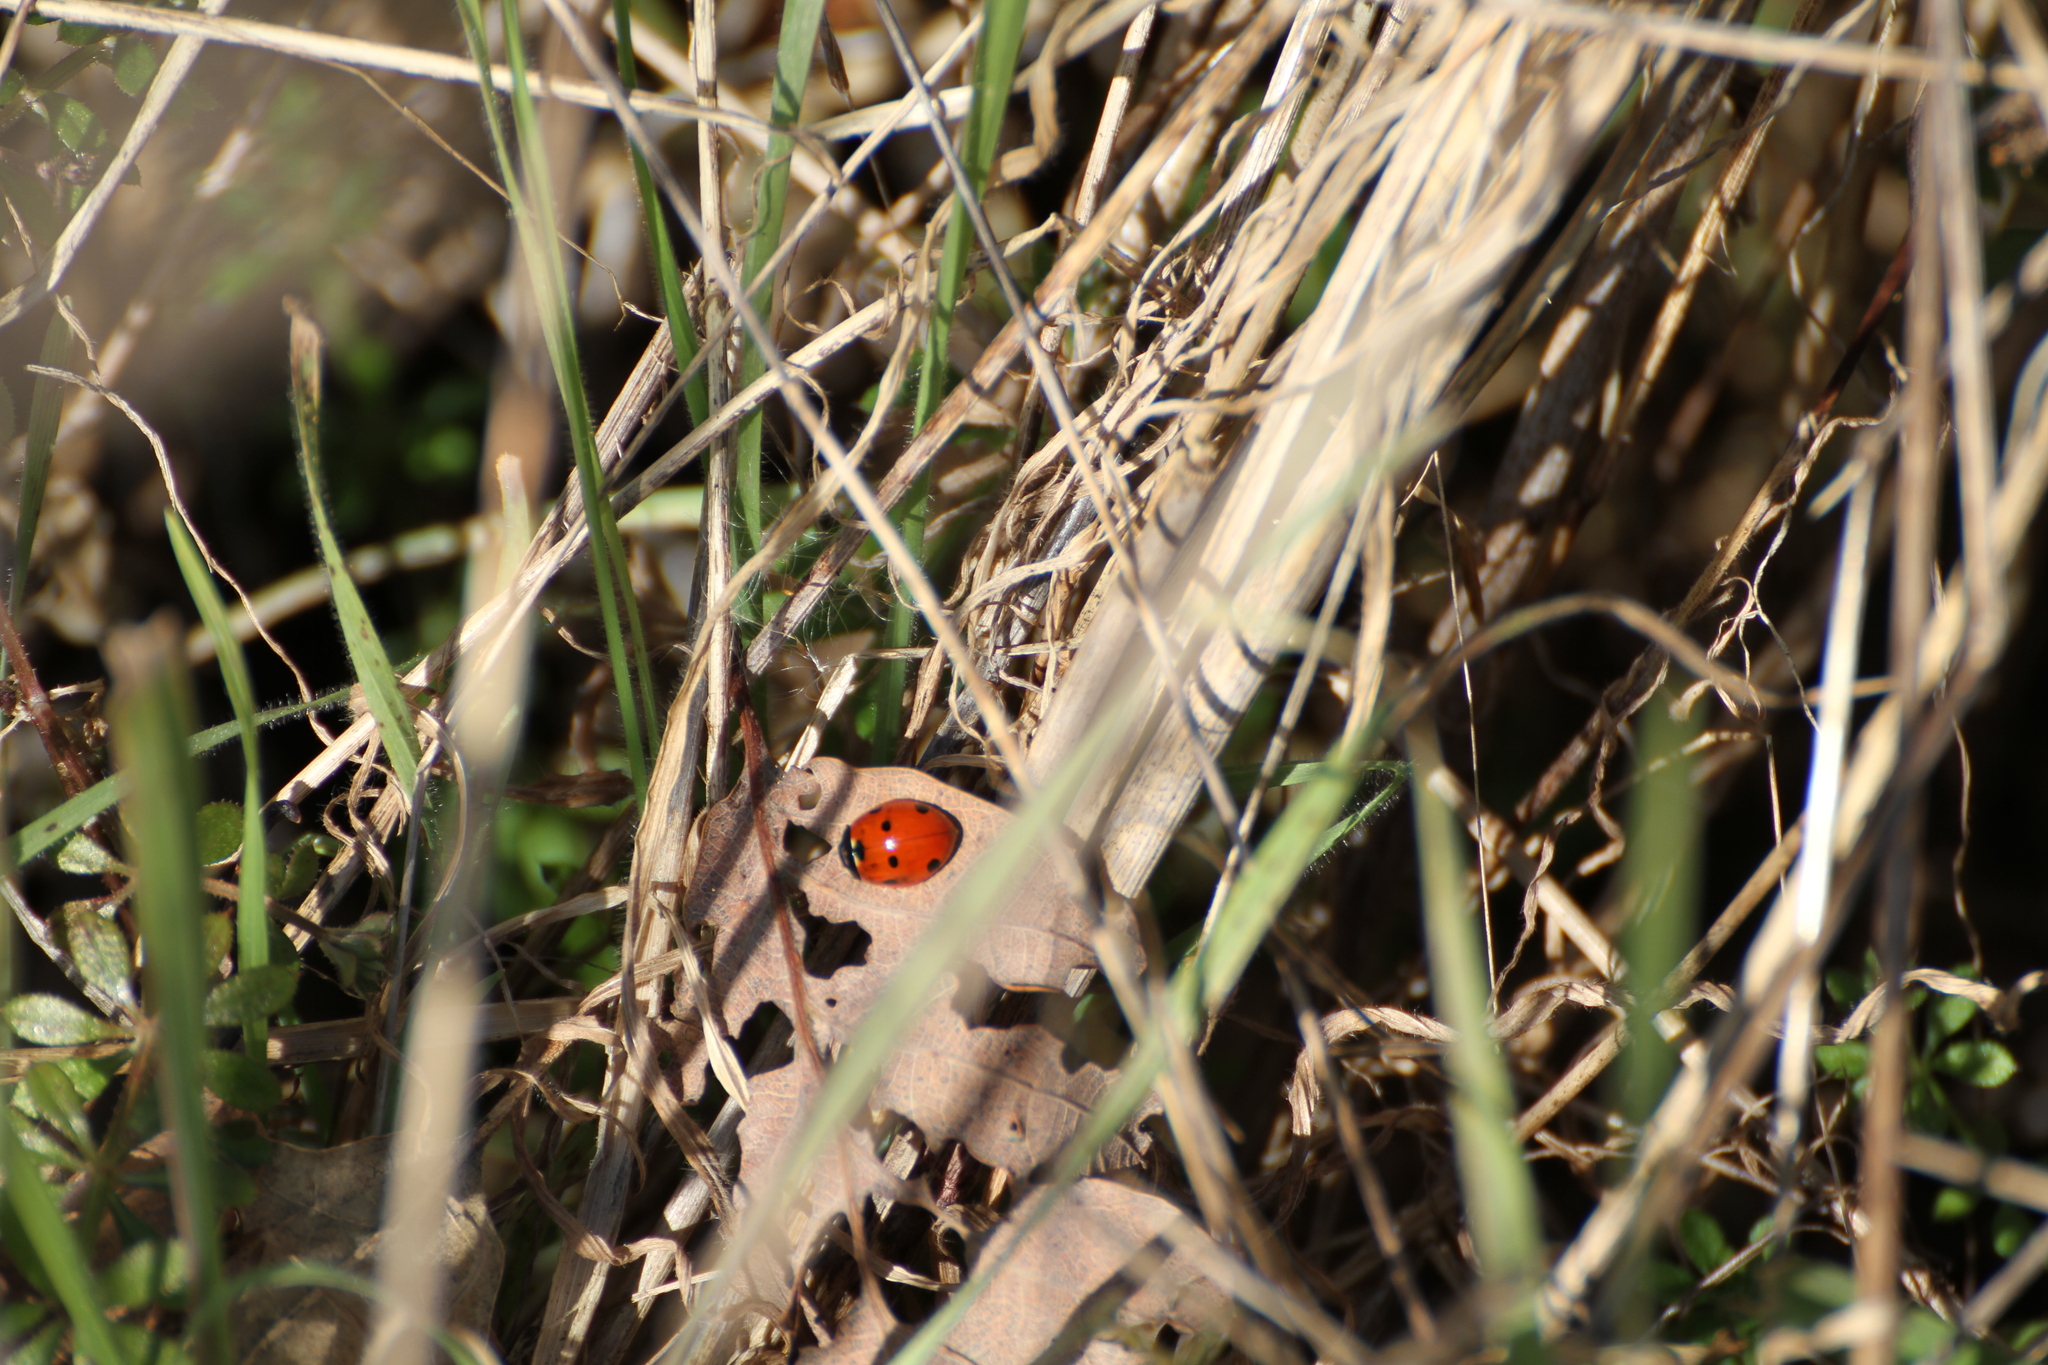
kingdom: Animalia
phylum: Arthropoda
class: Insecta
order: Coleoptera
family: Coccinellidae
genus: Coccinella
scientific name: Coccinella septempunctata
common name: Sevenspotted lady beetle
